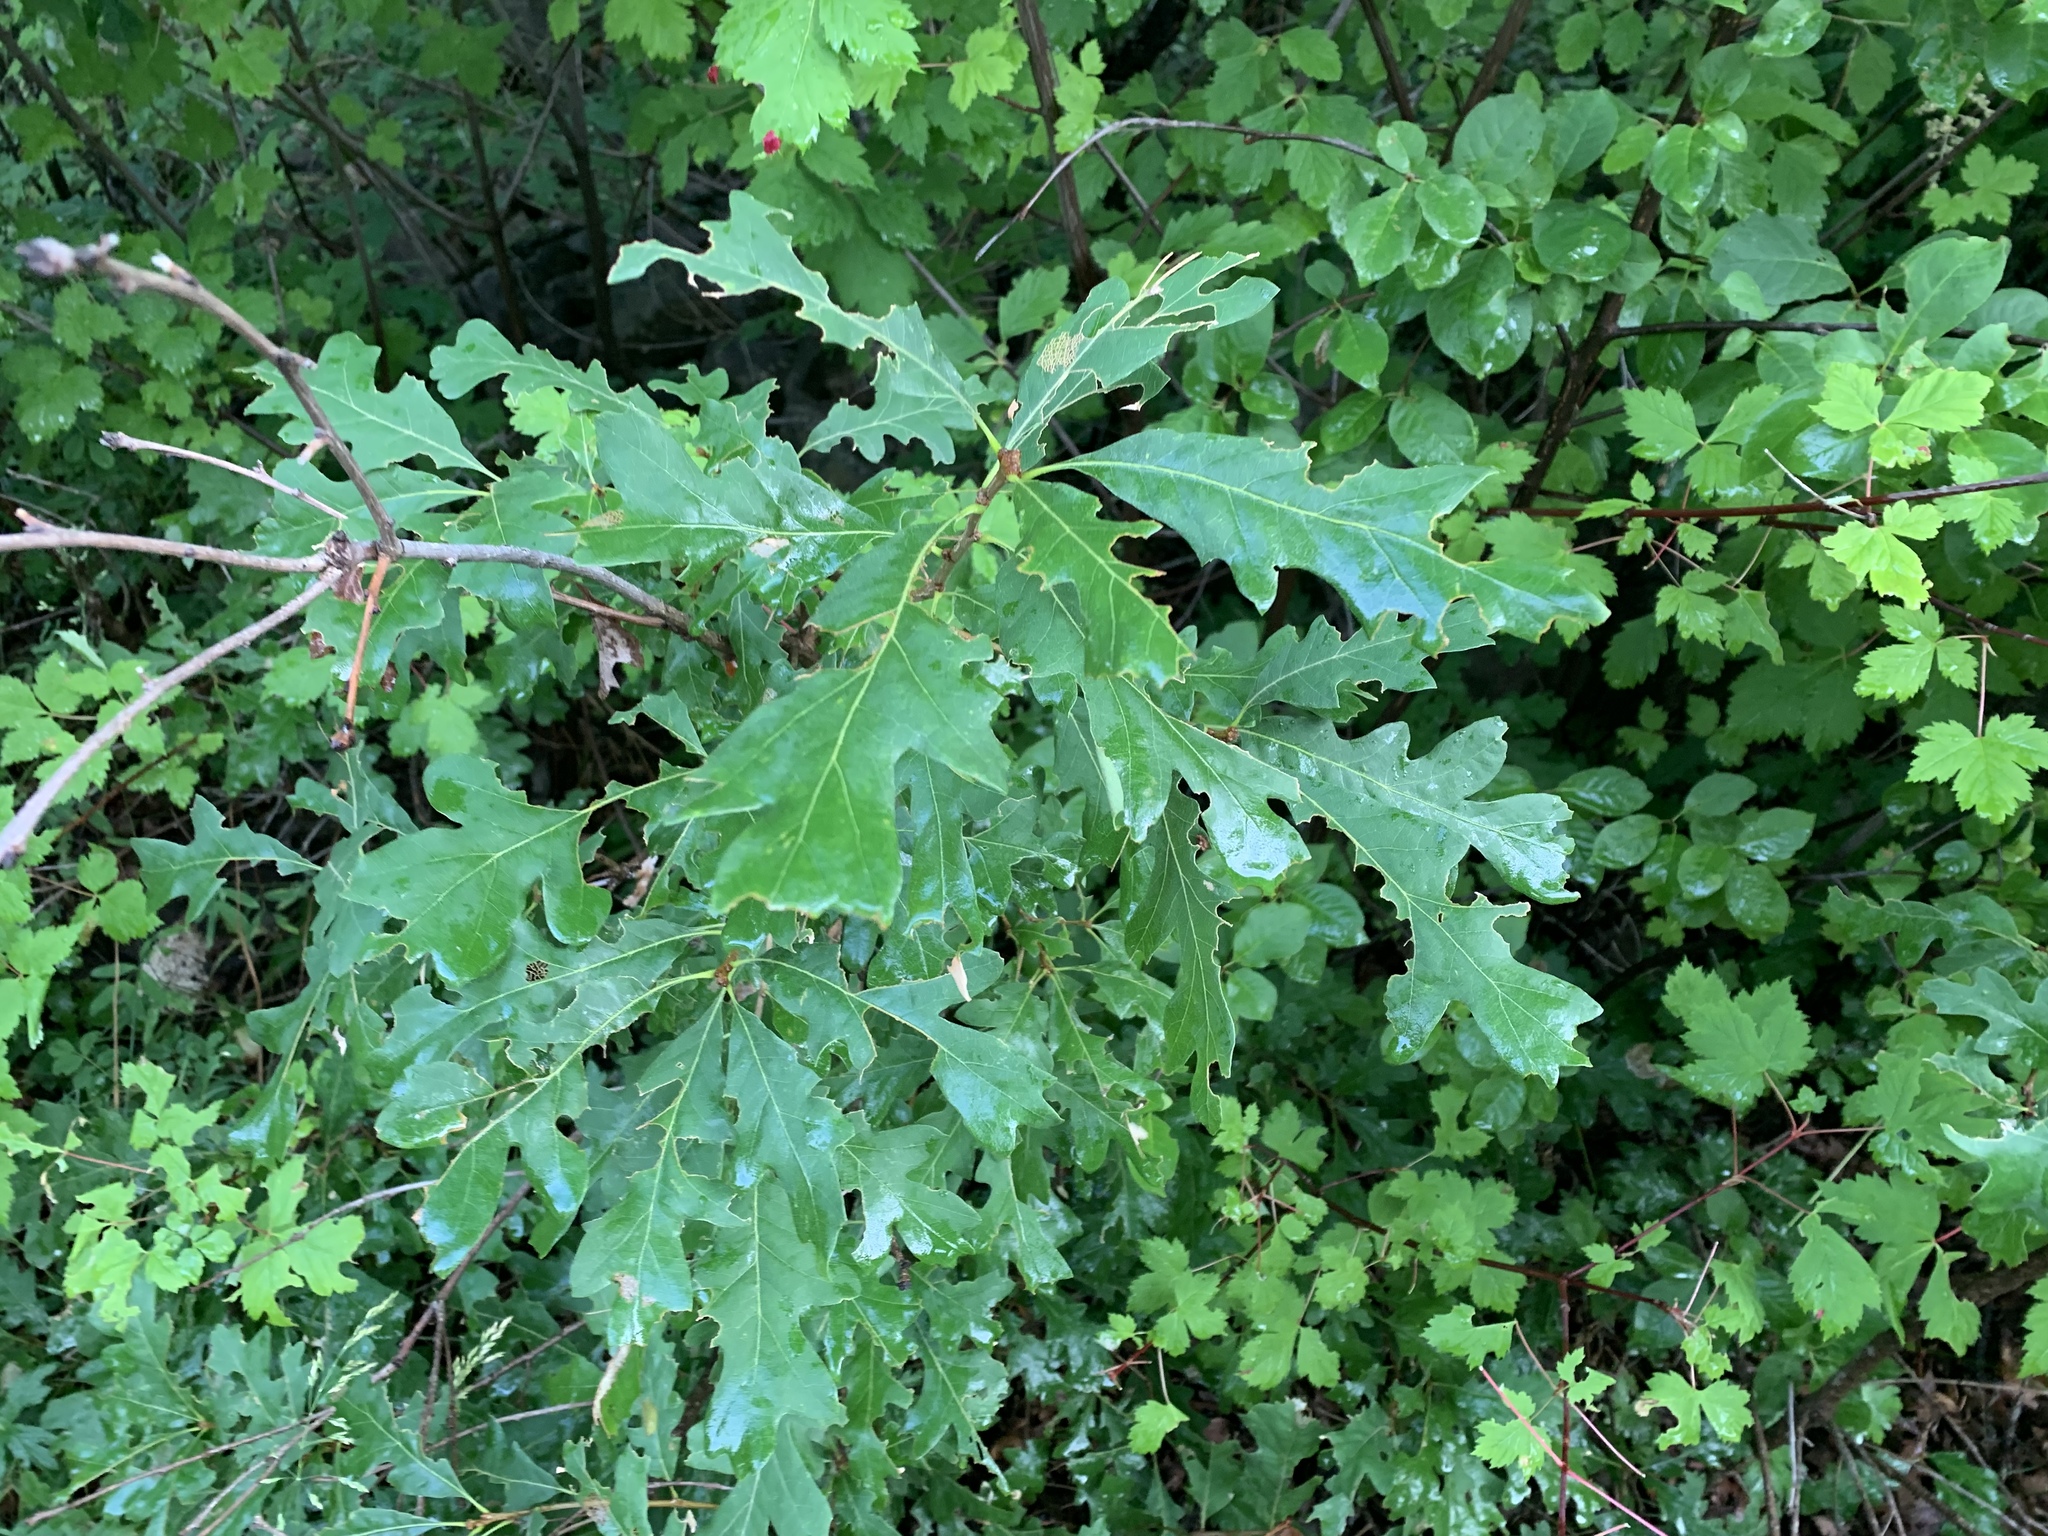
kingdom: Plantae
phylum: Tracheophyta
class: Magnoliopsida
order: Fagales
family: Fagaceae
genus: Quercus
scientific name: Quercus gambelii
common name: Gambel oak
